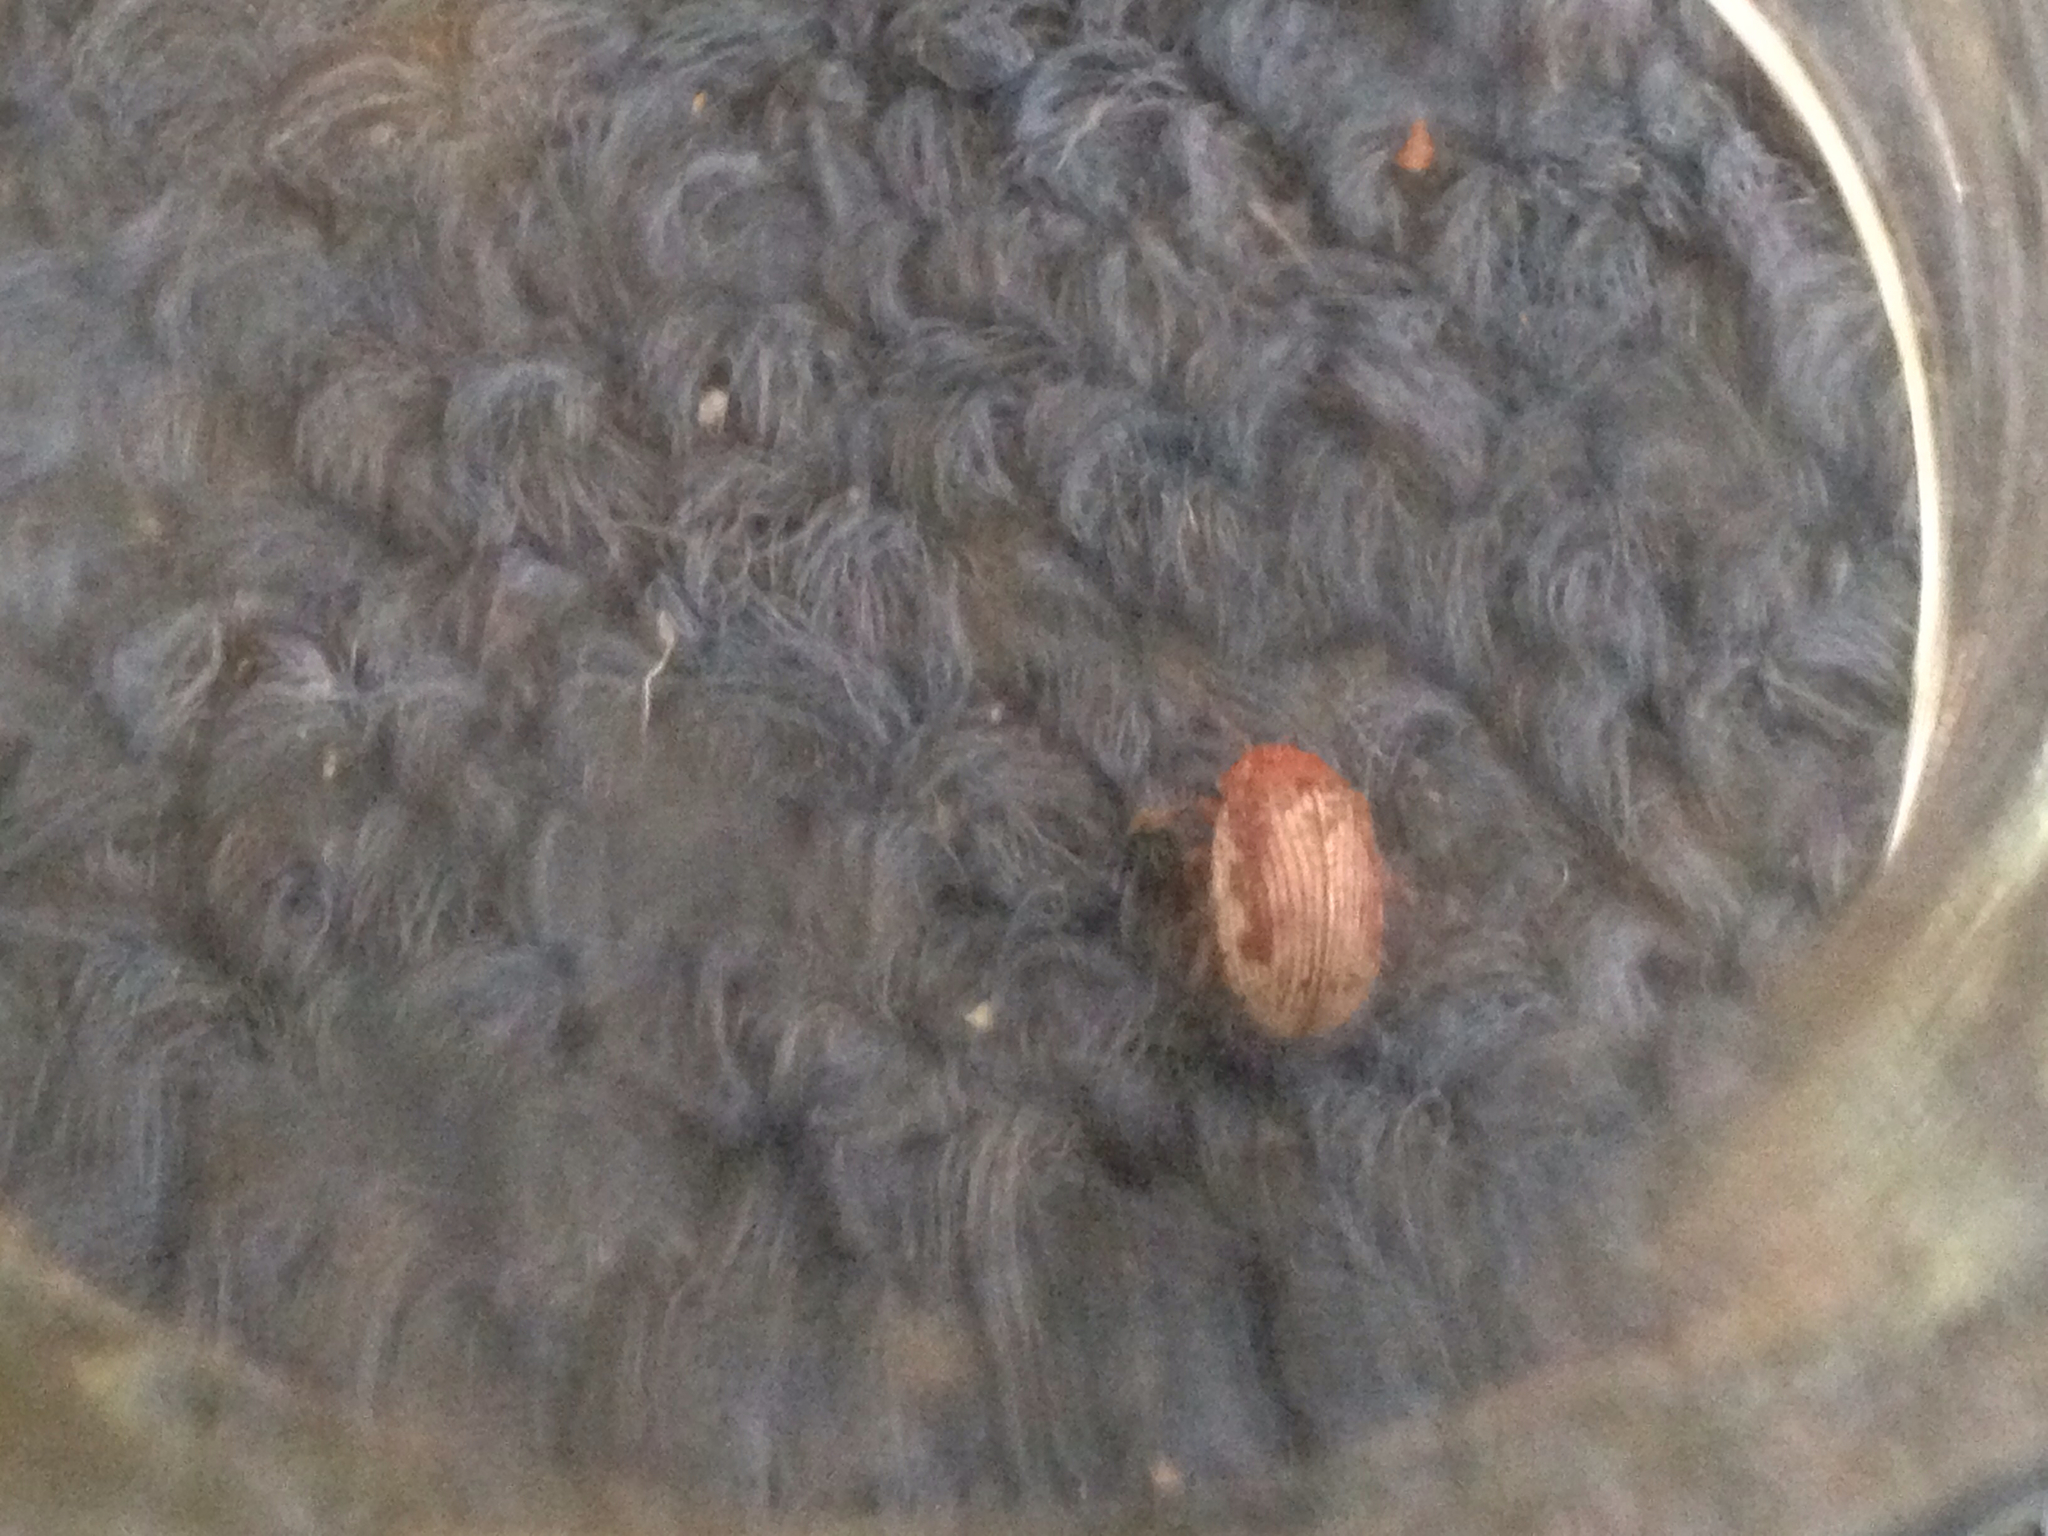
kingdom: Animalia
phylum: Arthropoda
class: Insecta
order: Coleoptera
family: Chrysomelidae
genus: Blepharida
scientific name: Blepharida rhois
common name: Sumac flea beetle
